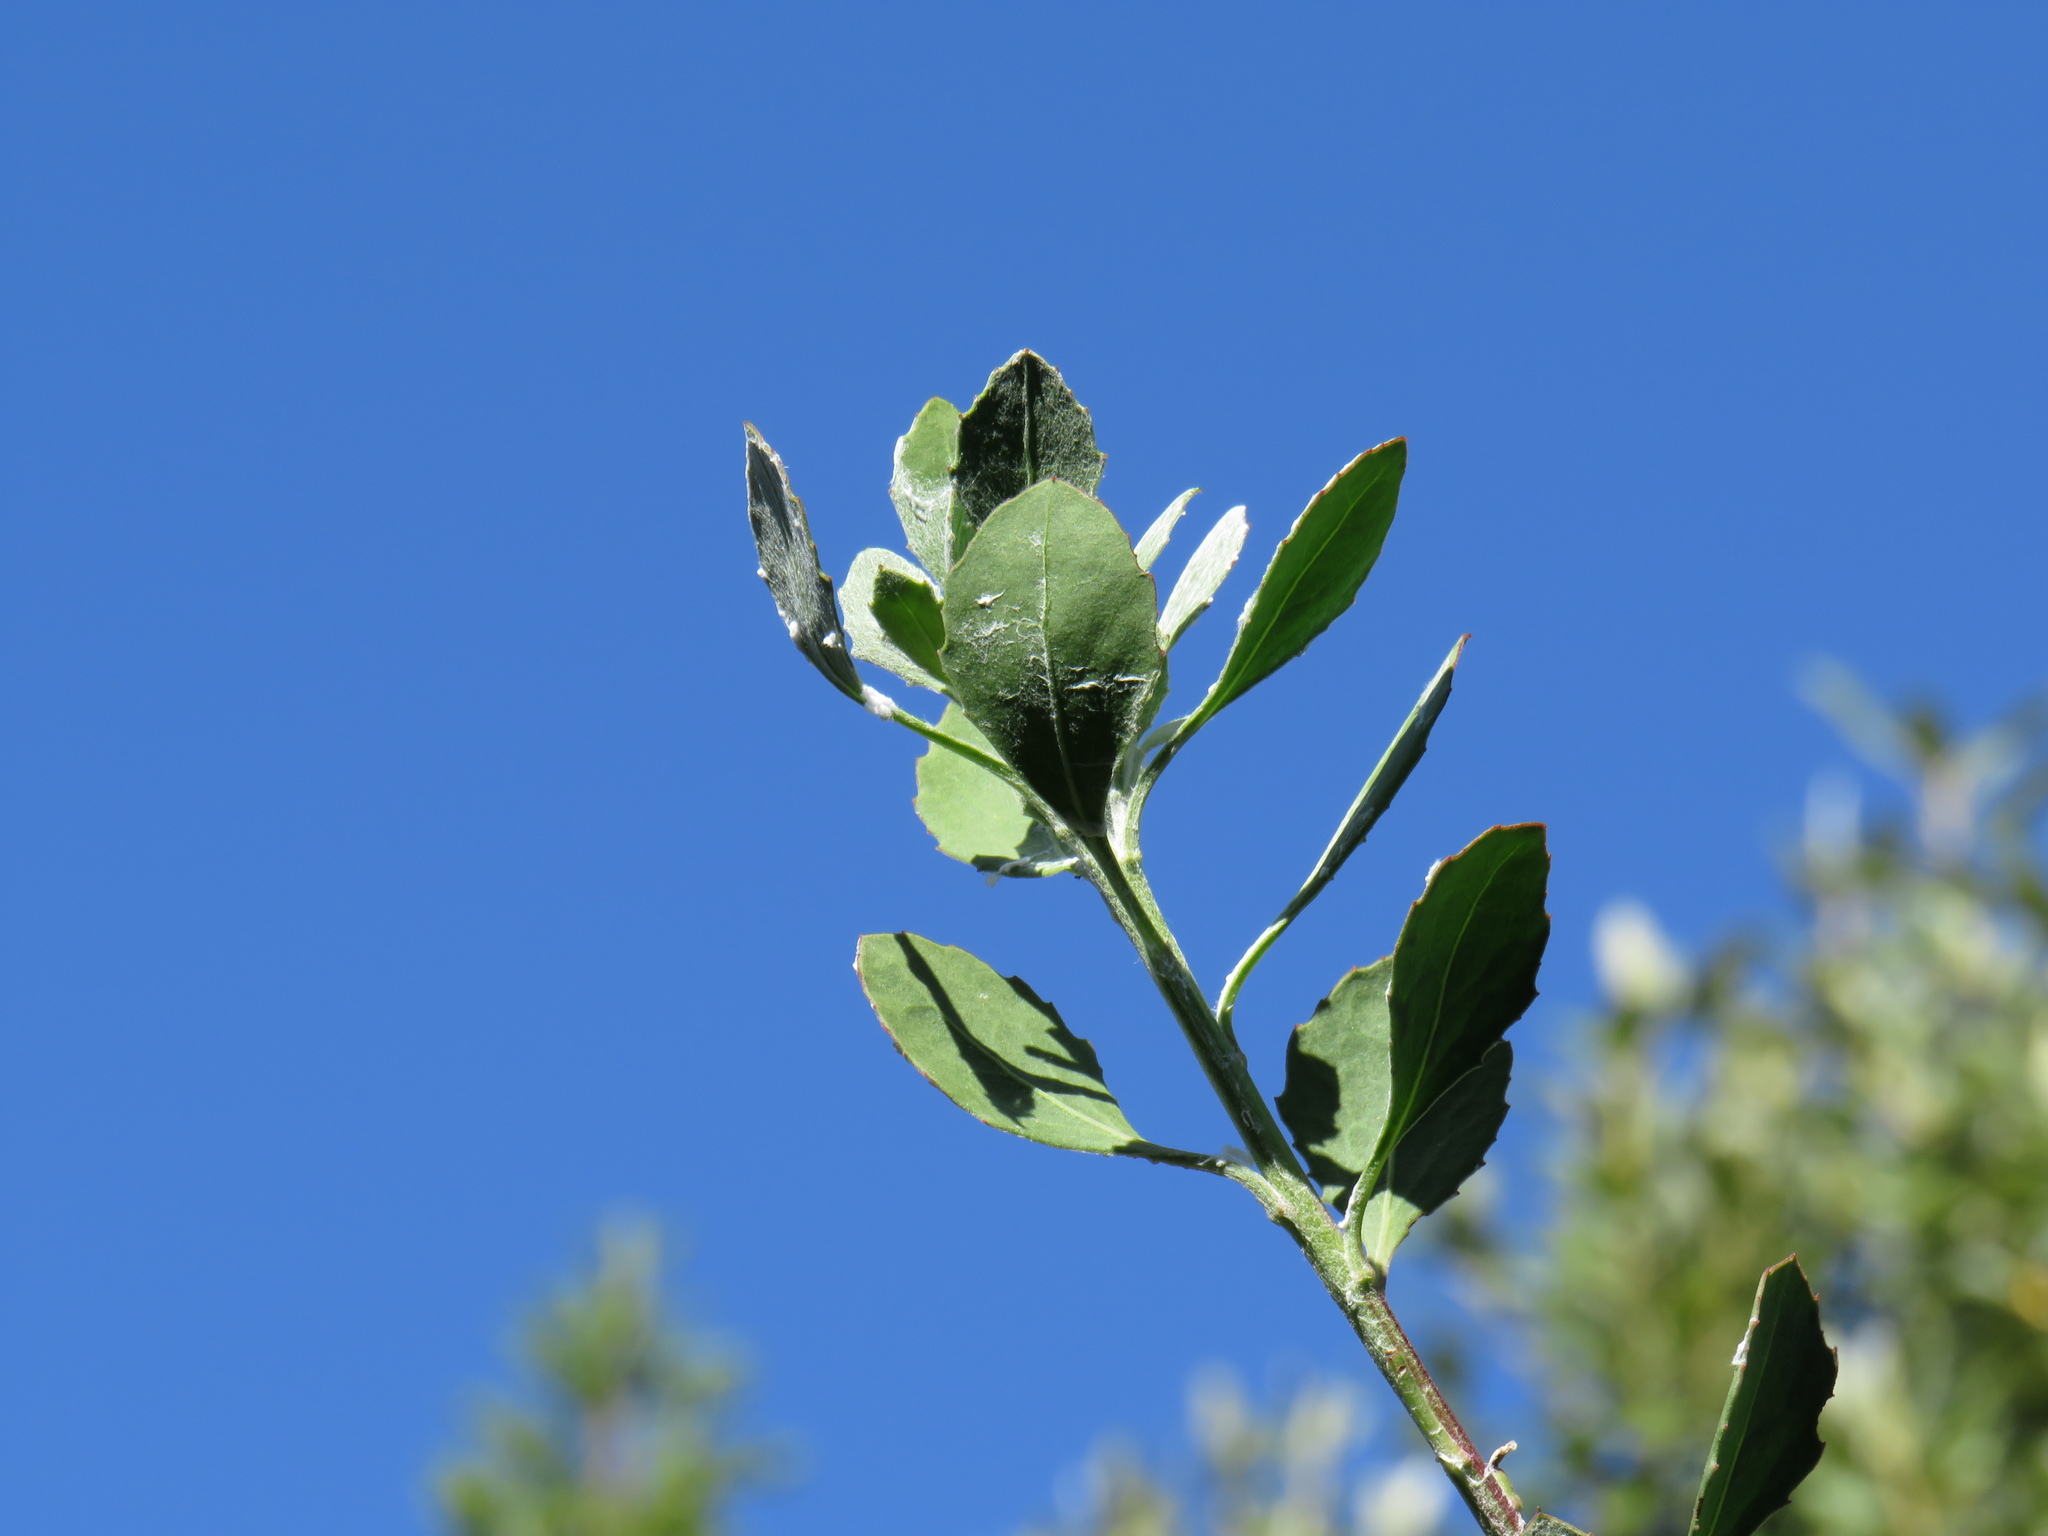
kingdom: Plantae
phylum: Tracheophyta
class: Magnoliopsida
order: Asterales
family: Asteraceae
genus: Osteospermum
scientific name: Osteospermum moniliferum
